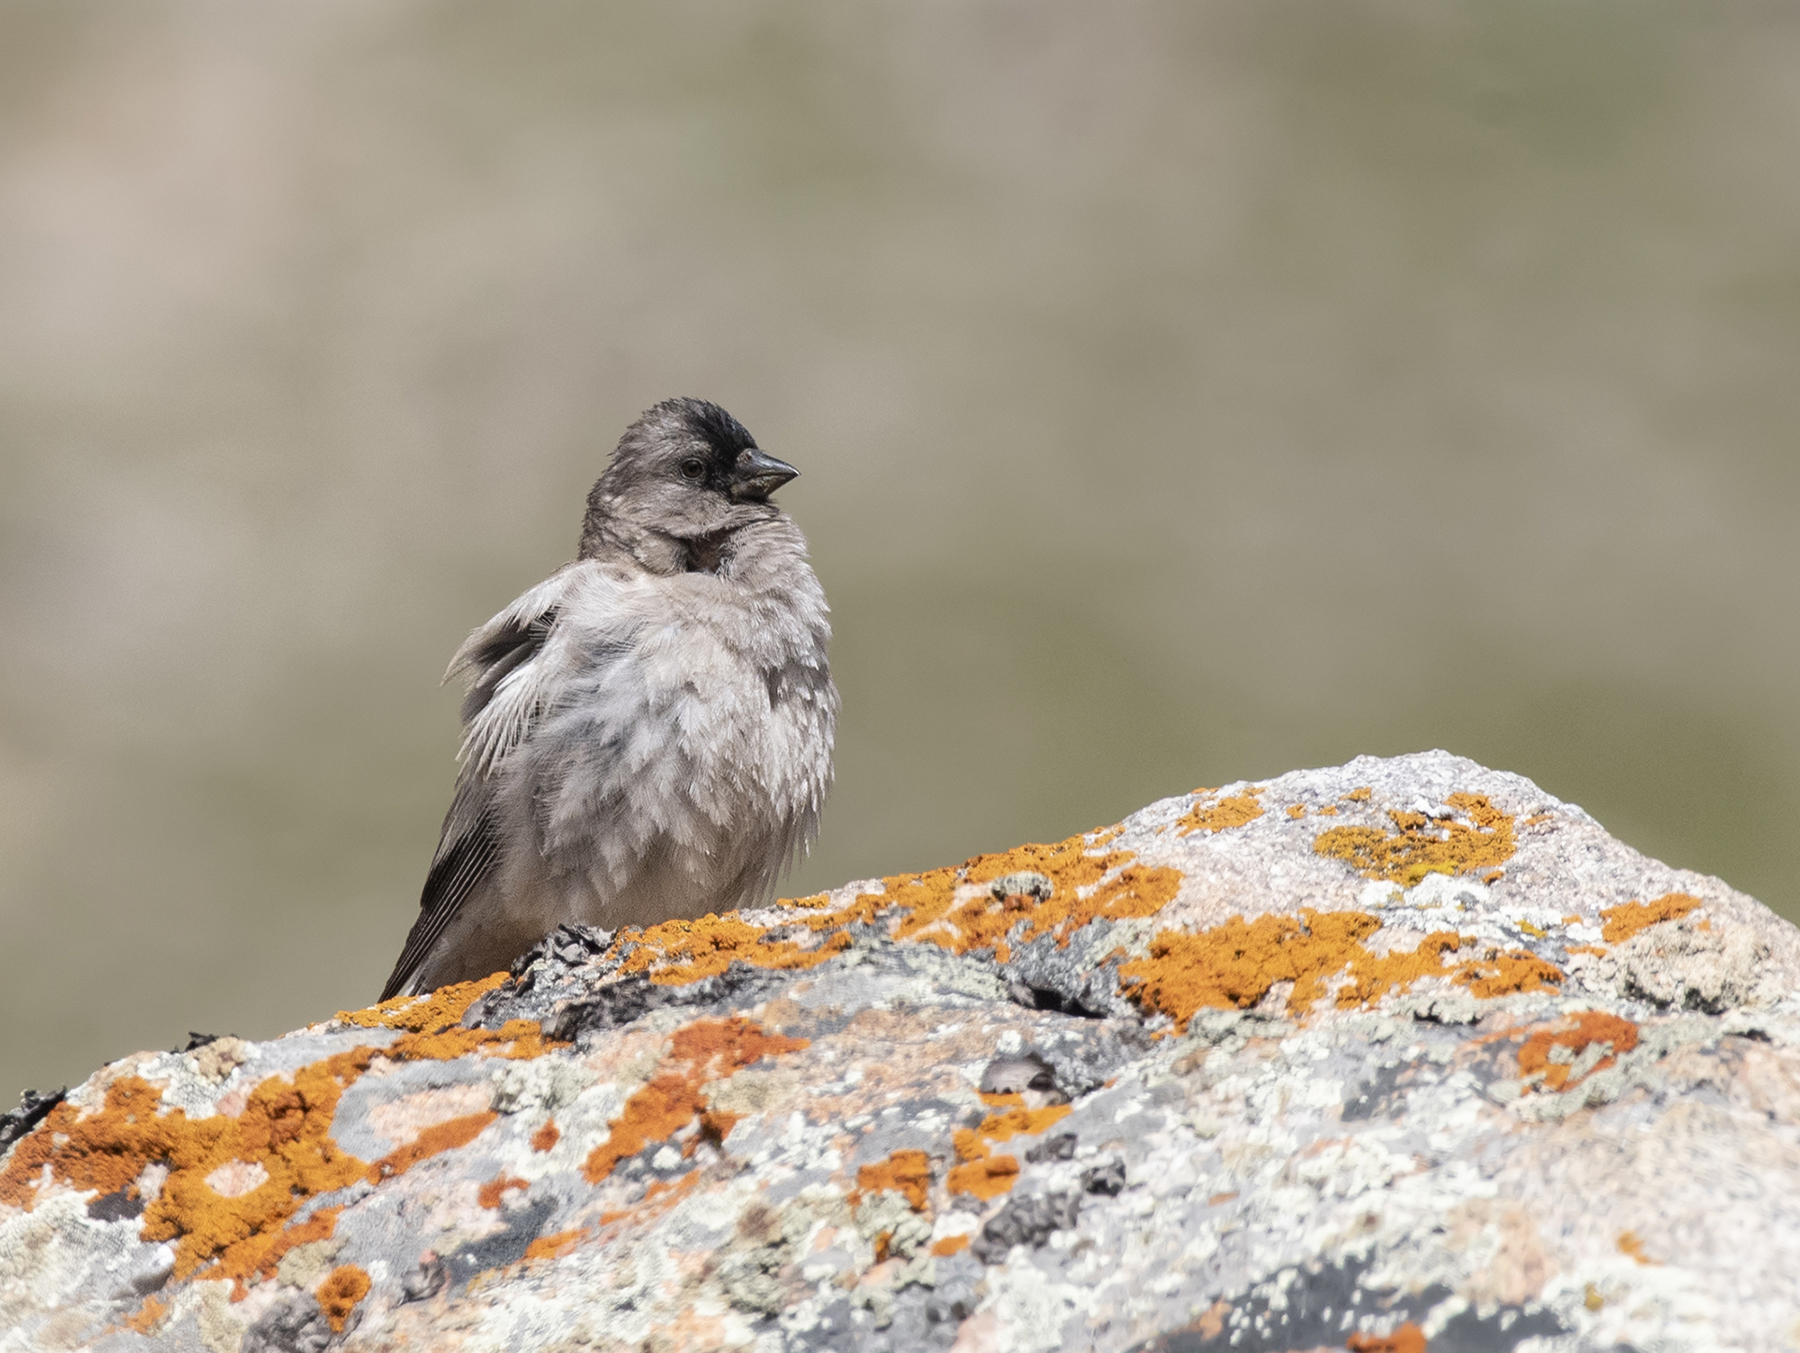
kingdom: Animalia
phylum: Chordata
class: Aves
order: Passeriformes
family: Fringillidae
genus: Leucosticte
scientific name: Leucosticte brandti
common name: Brandt's mountain finch
